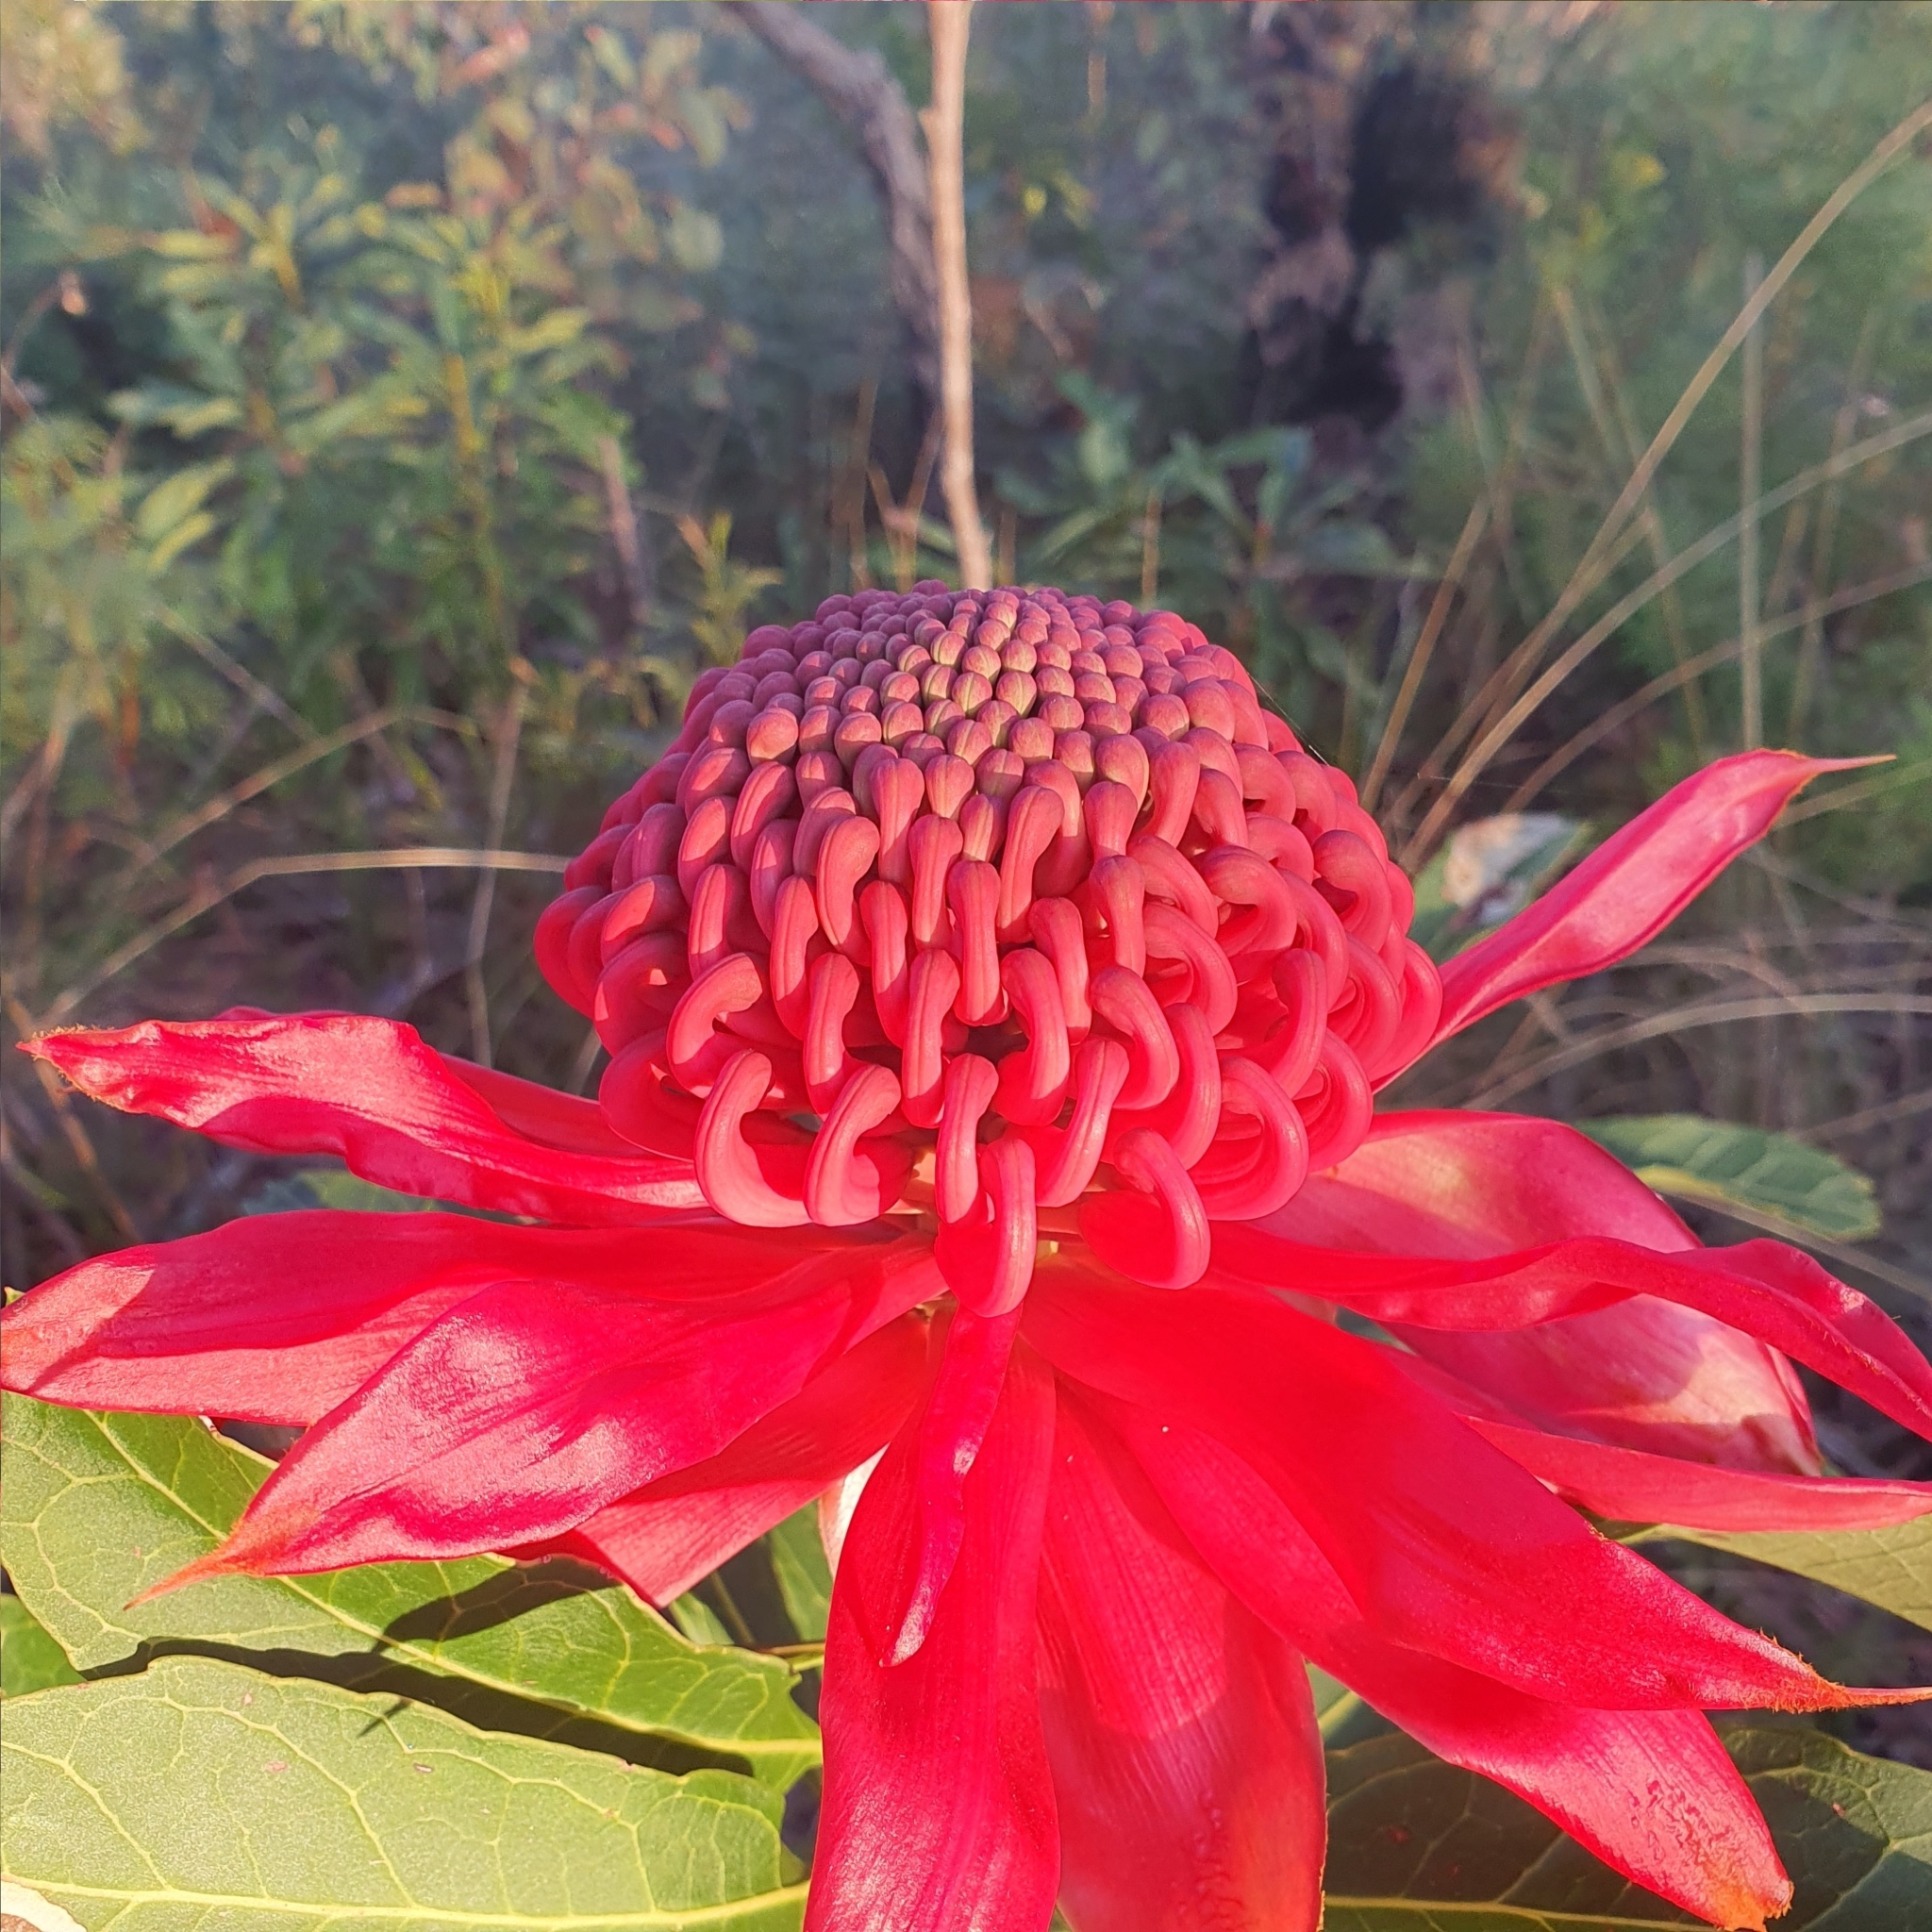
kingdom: Plantae
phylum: Tracheophyta
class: Magnoliopsida
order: Proteales
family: Proteaceae
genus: Telopea
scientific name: Telopea speciosissima
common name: New south wales waratah
